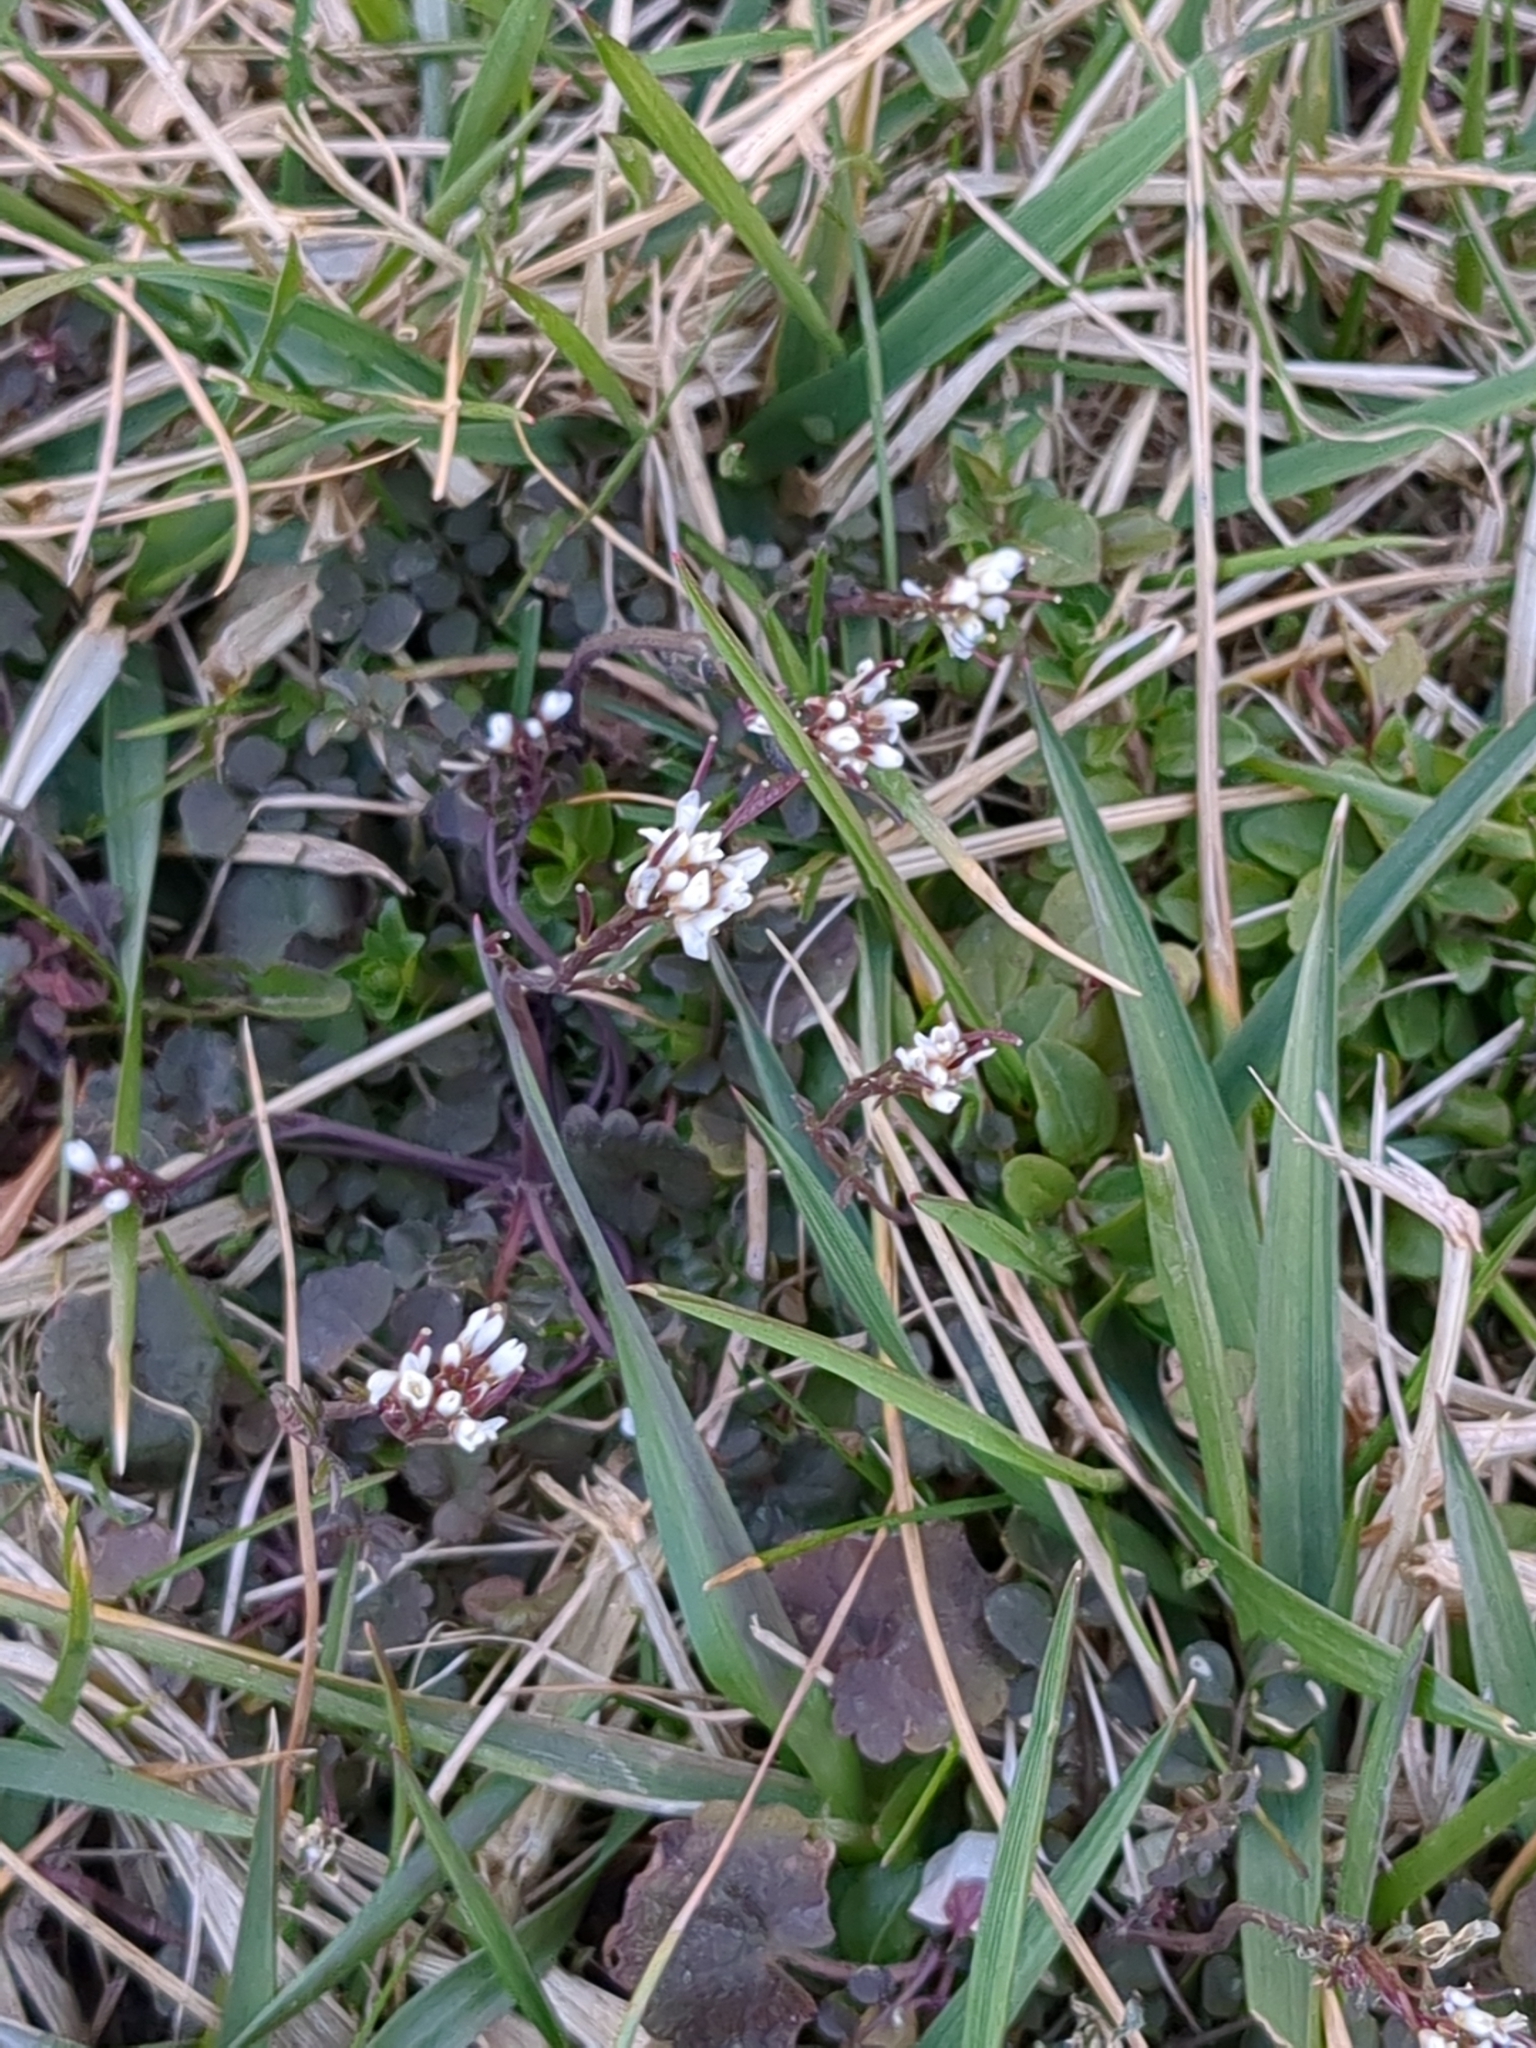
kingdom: Plantae
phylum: Tracheophyta
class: Magnoliopsida
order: Brassicales
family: Brassicaceae
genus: Cardamine
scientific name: Cardamine hirsuta
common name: Hairy bittercress
